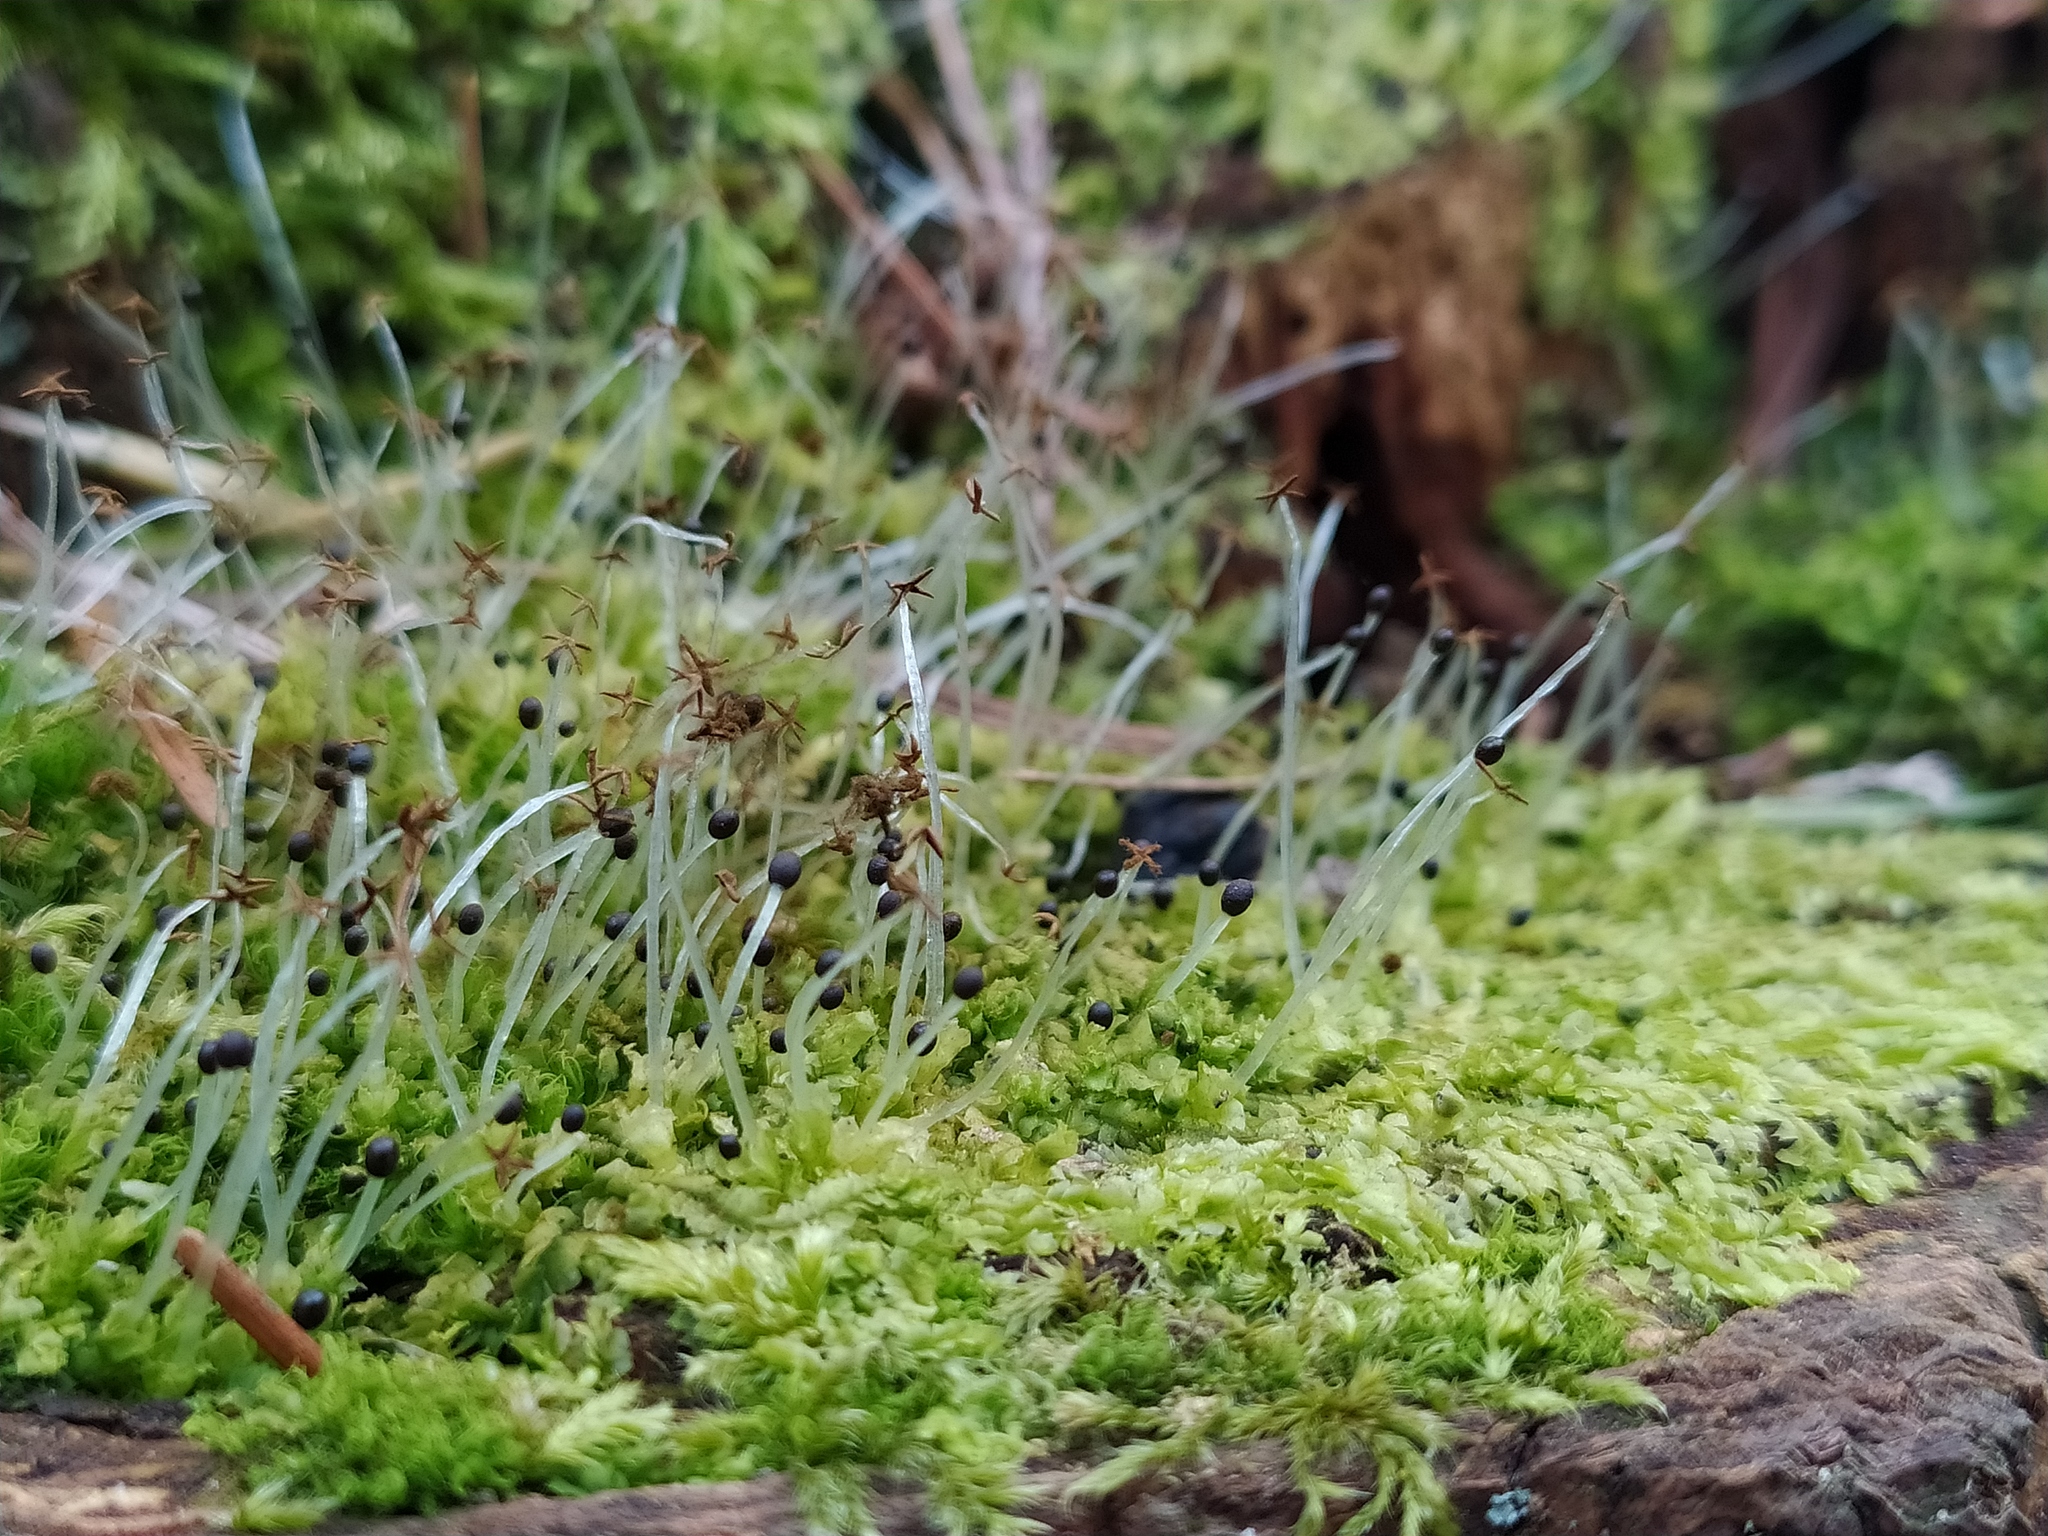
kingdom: Plantae
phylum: Marchantiophyta
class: Jungermanniopsida
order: Jungermanniales
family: Lophocoleaceae
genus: Lophocolea
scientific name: Lophocolea heterophylla
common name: Variable-leaved crestwort
